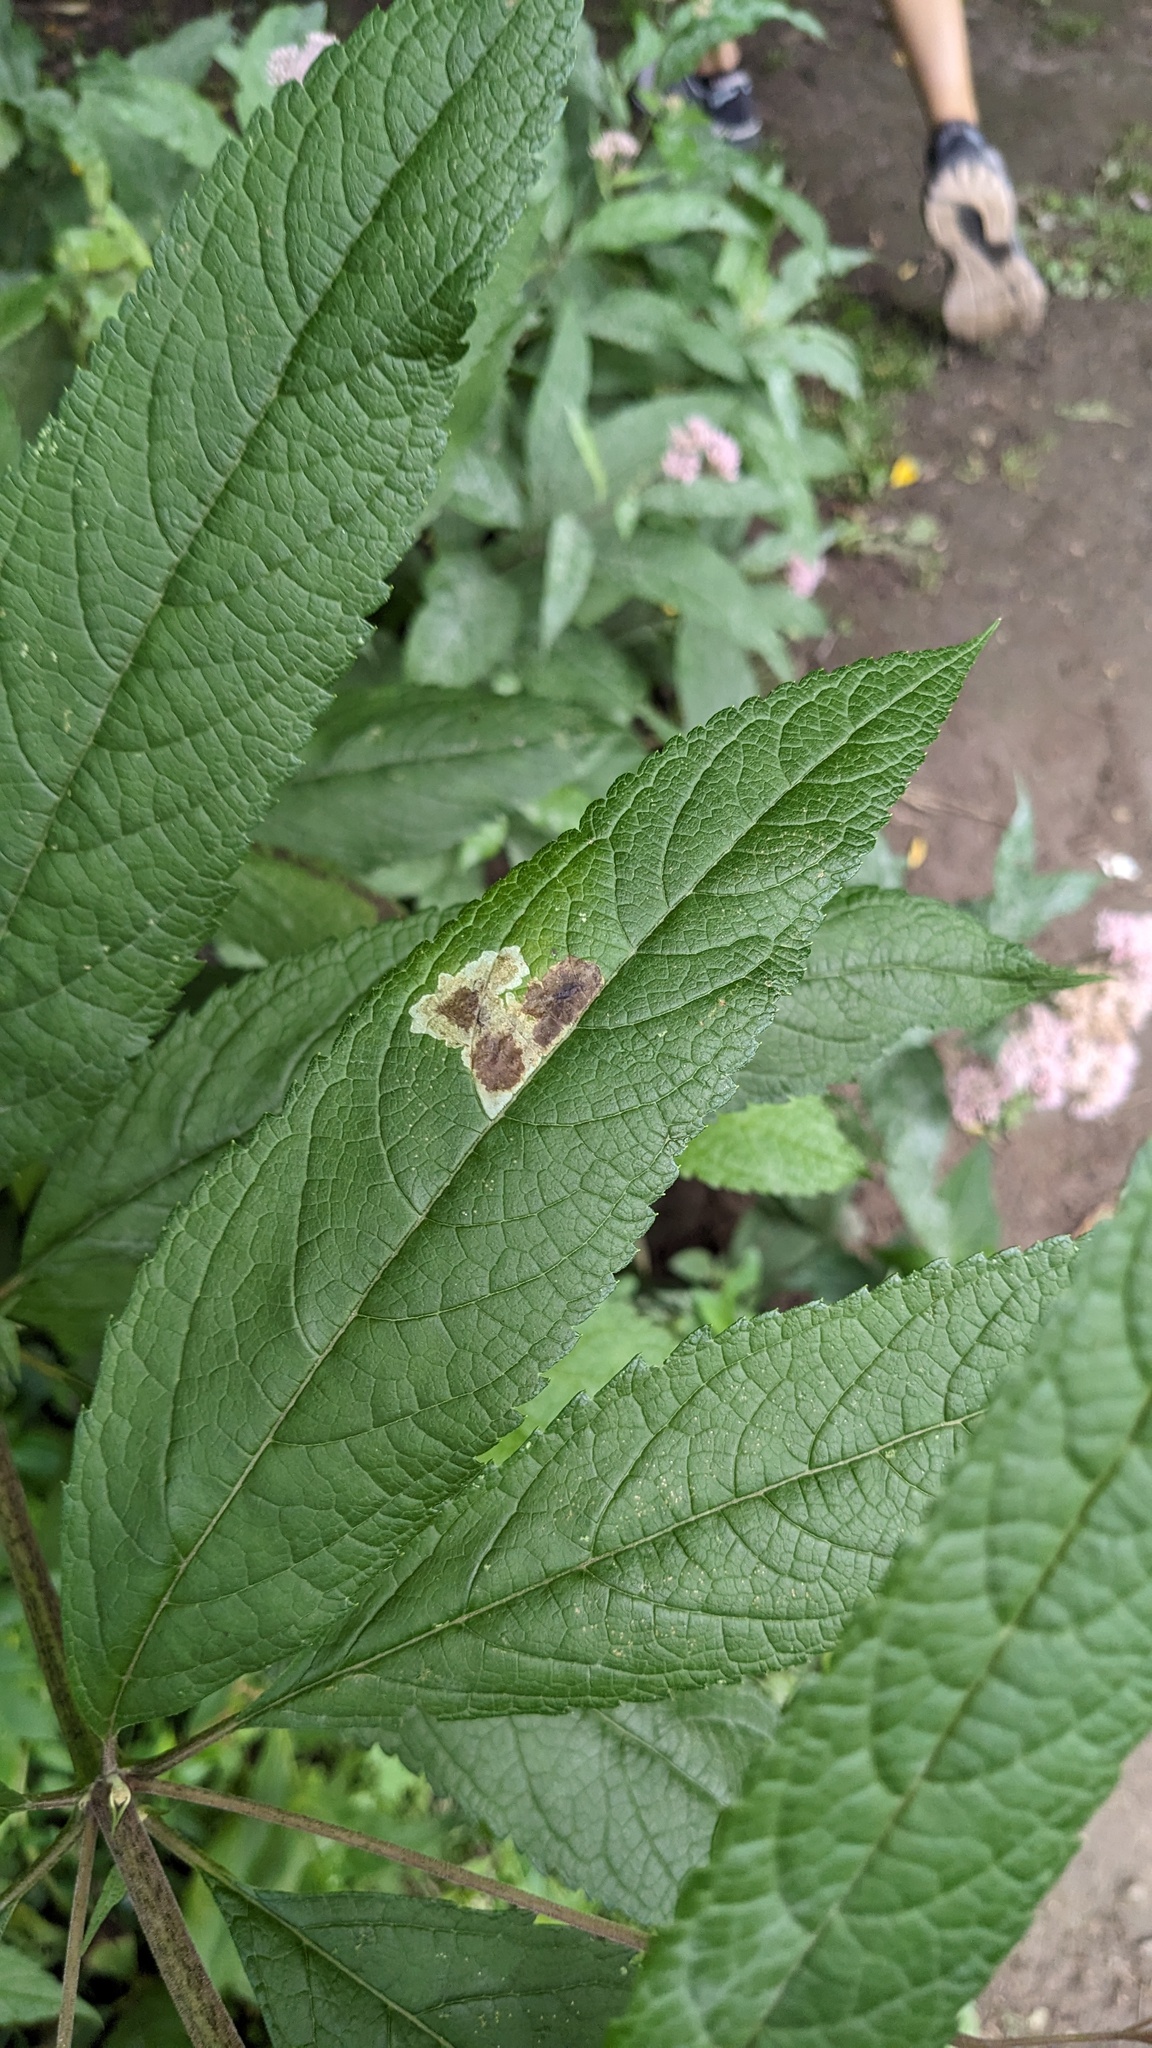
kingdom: Animalia
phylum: Arthropoda
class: Insecta
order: Diptera
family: Agromyzidae
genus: Calycomyza
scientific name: Calycomyza flavinotum
